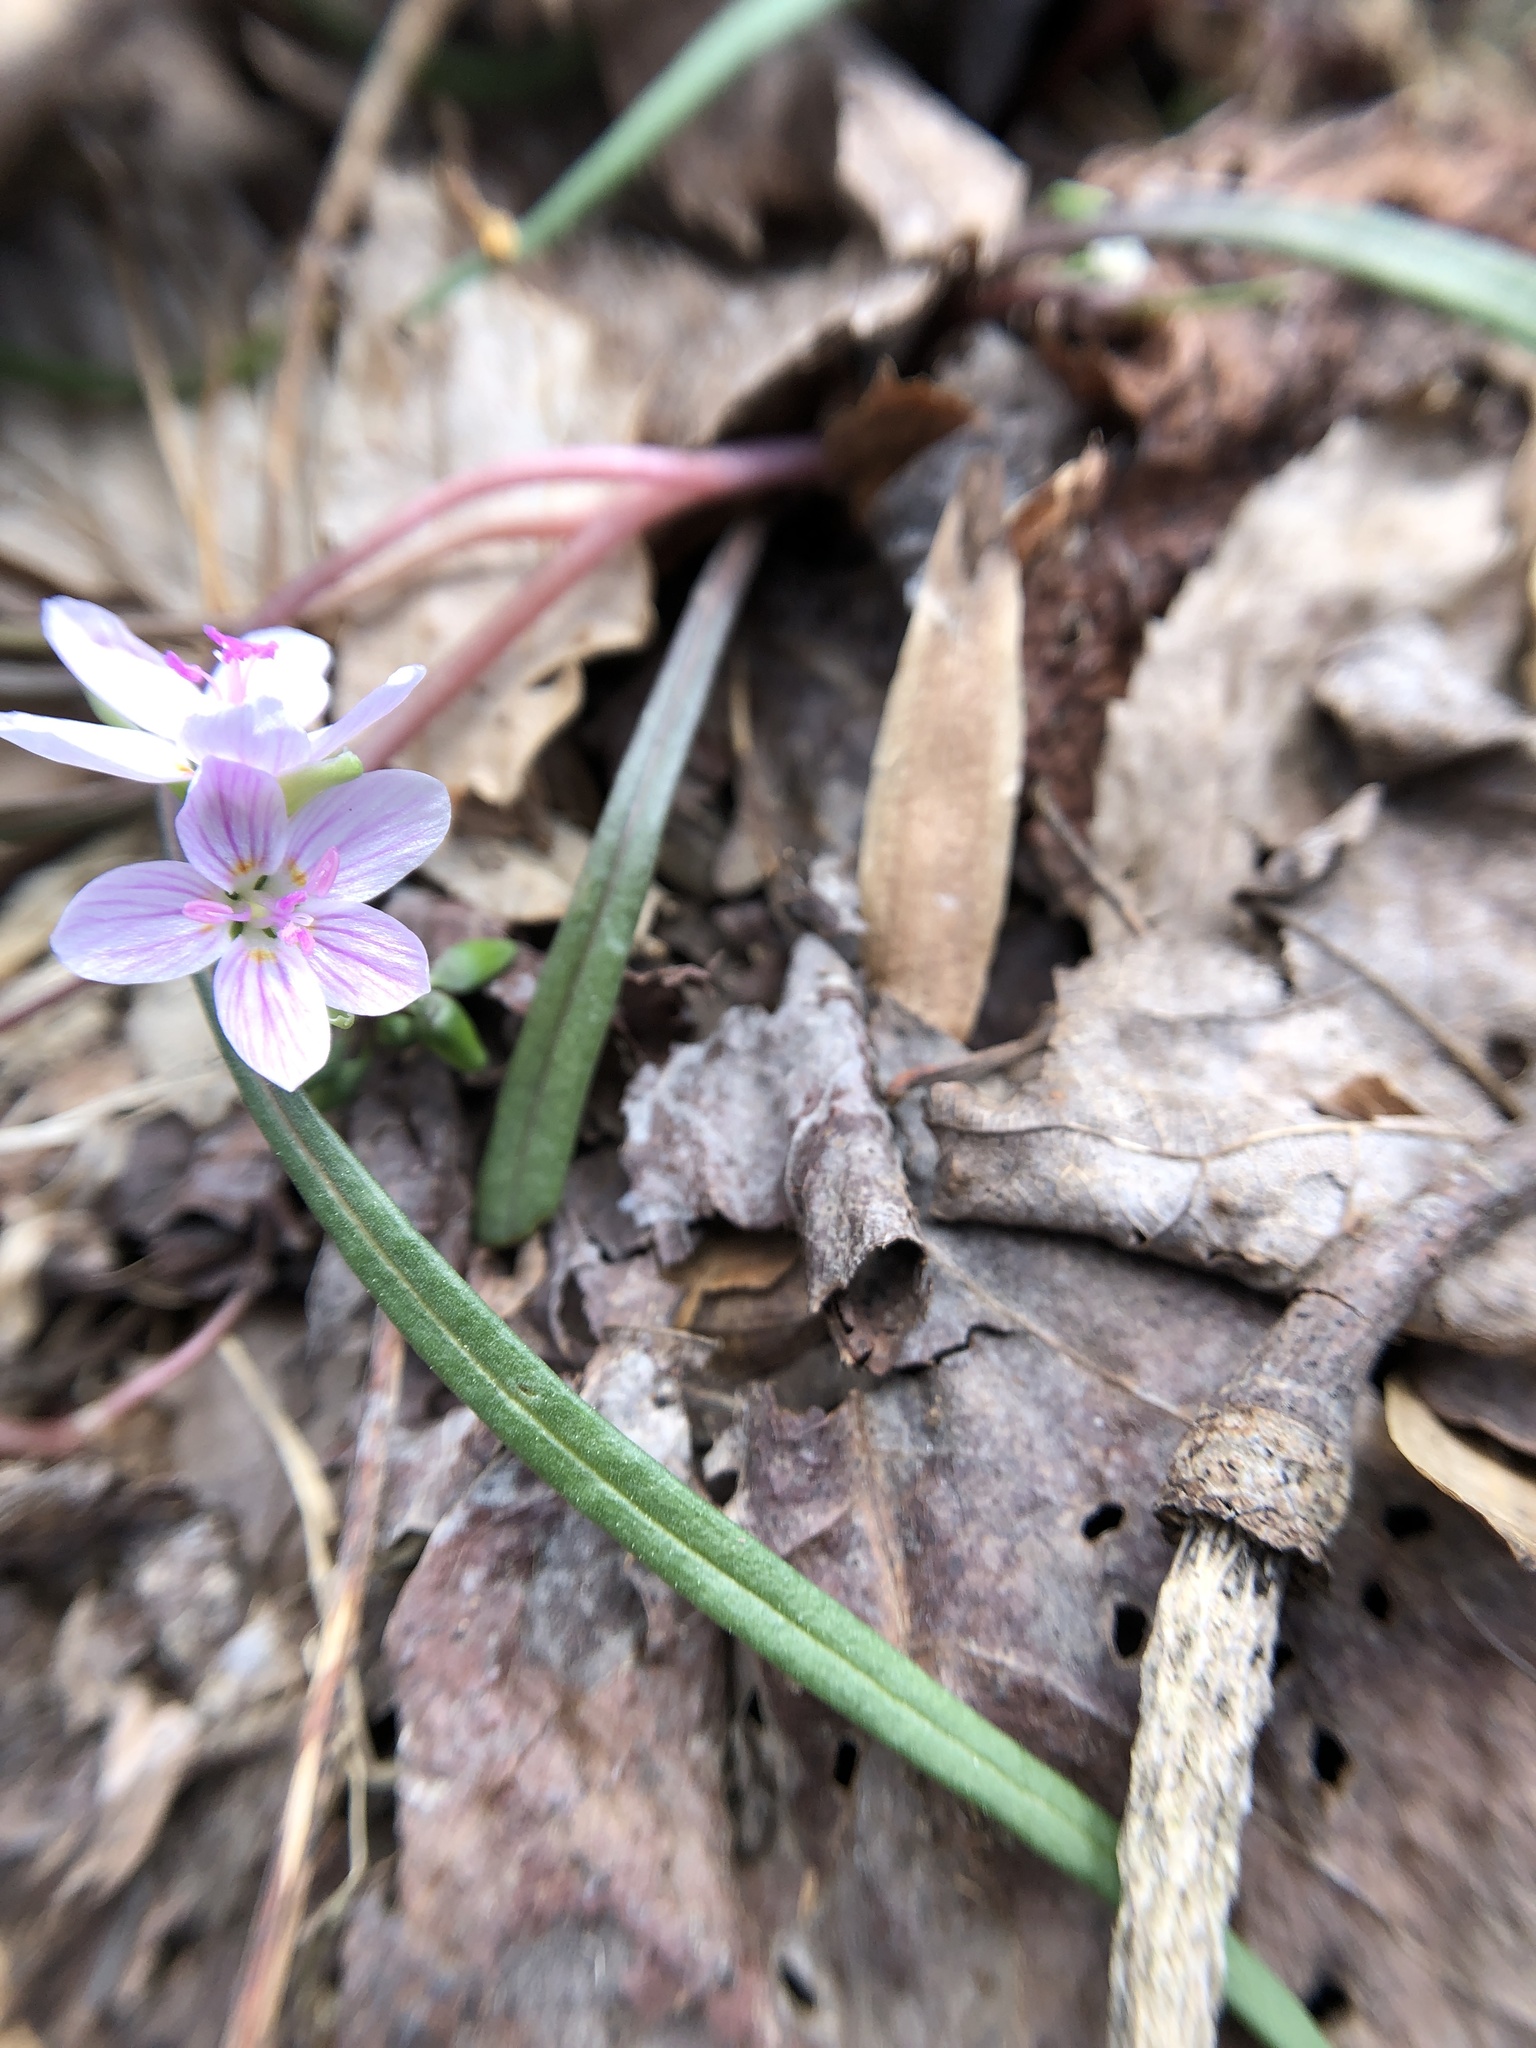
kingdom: Plantae
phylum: Tracheophyta
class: Magnoliopsida
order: Caryophyllales
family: Montiaceae
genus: Claytonia
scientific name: Claytonia virginica
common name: Virginia springbeauty
